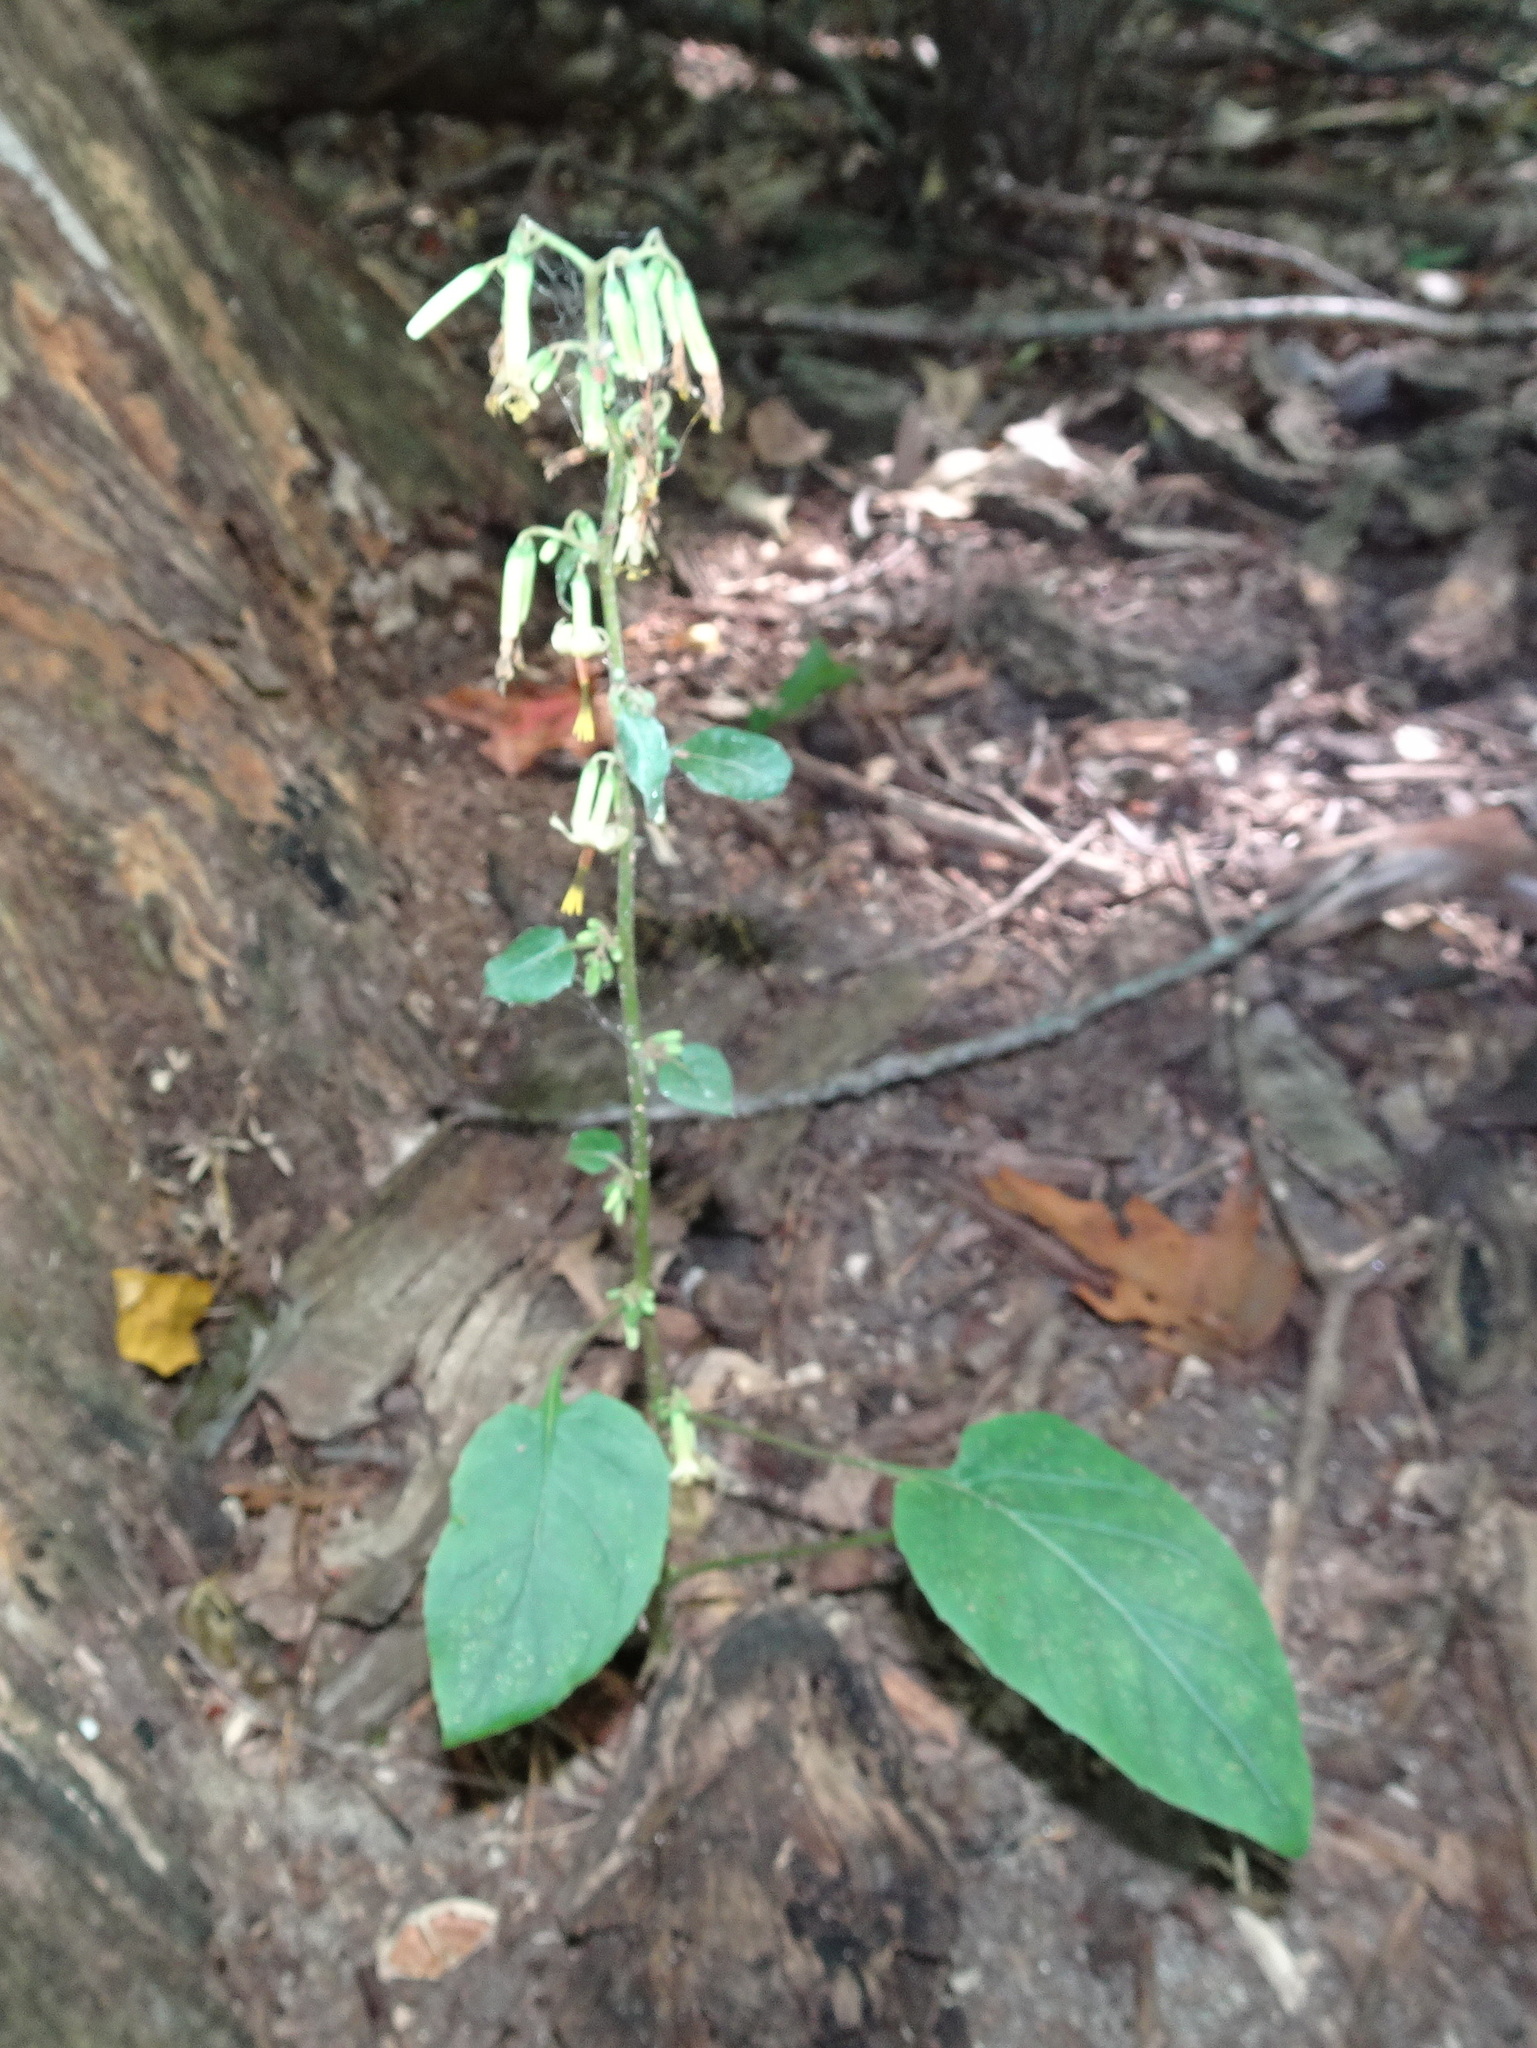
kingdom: Plantae
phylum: Tracheophyta
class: Magnoliopsida
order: Asterales
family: Asteraceae
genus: Nabalus
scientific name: Nabalus altissima
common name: Tall rattlesnakeroot
